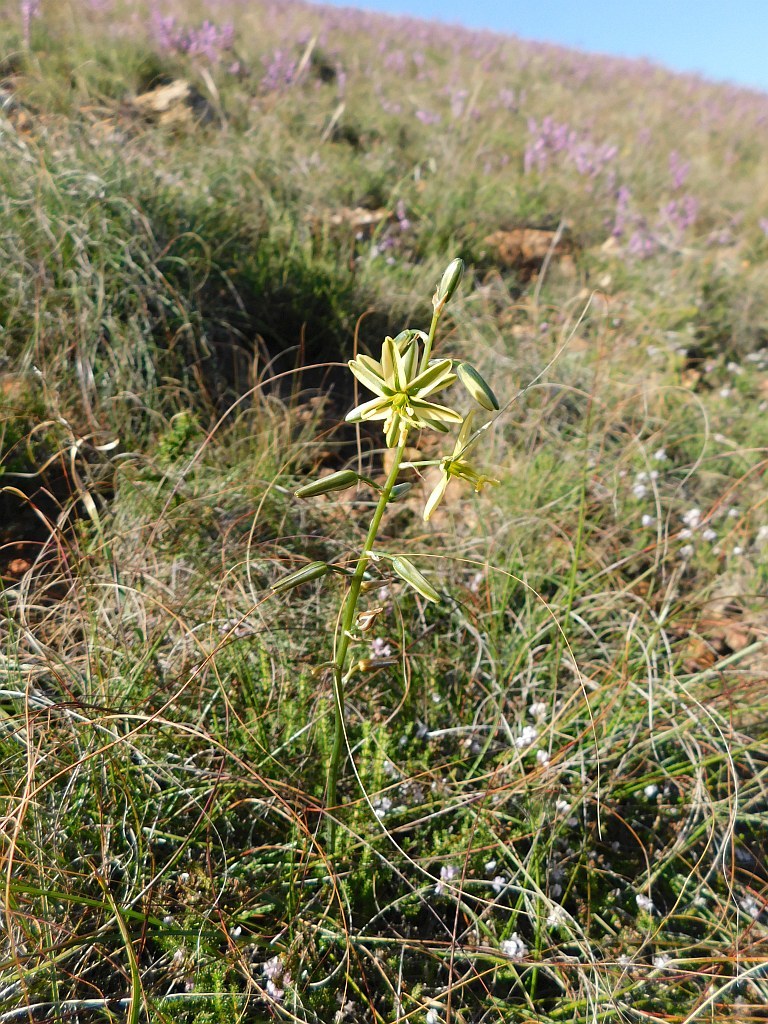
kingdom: Plantae
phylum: Tracheophyta
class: Liliopsida
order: Asparagales
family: Asparagaceae
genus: Albuca
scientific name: Albuca suaveolens
